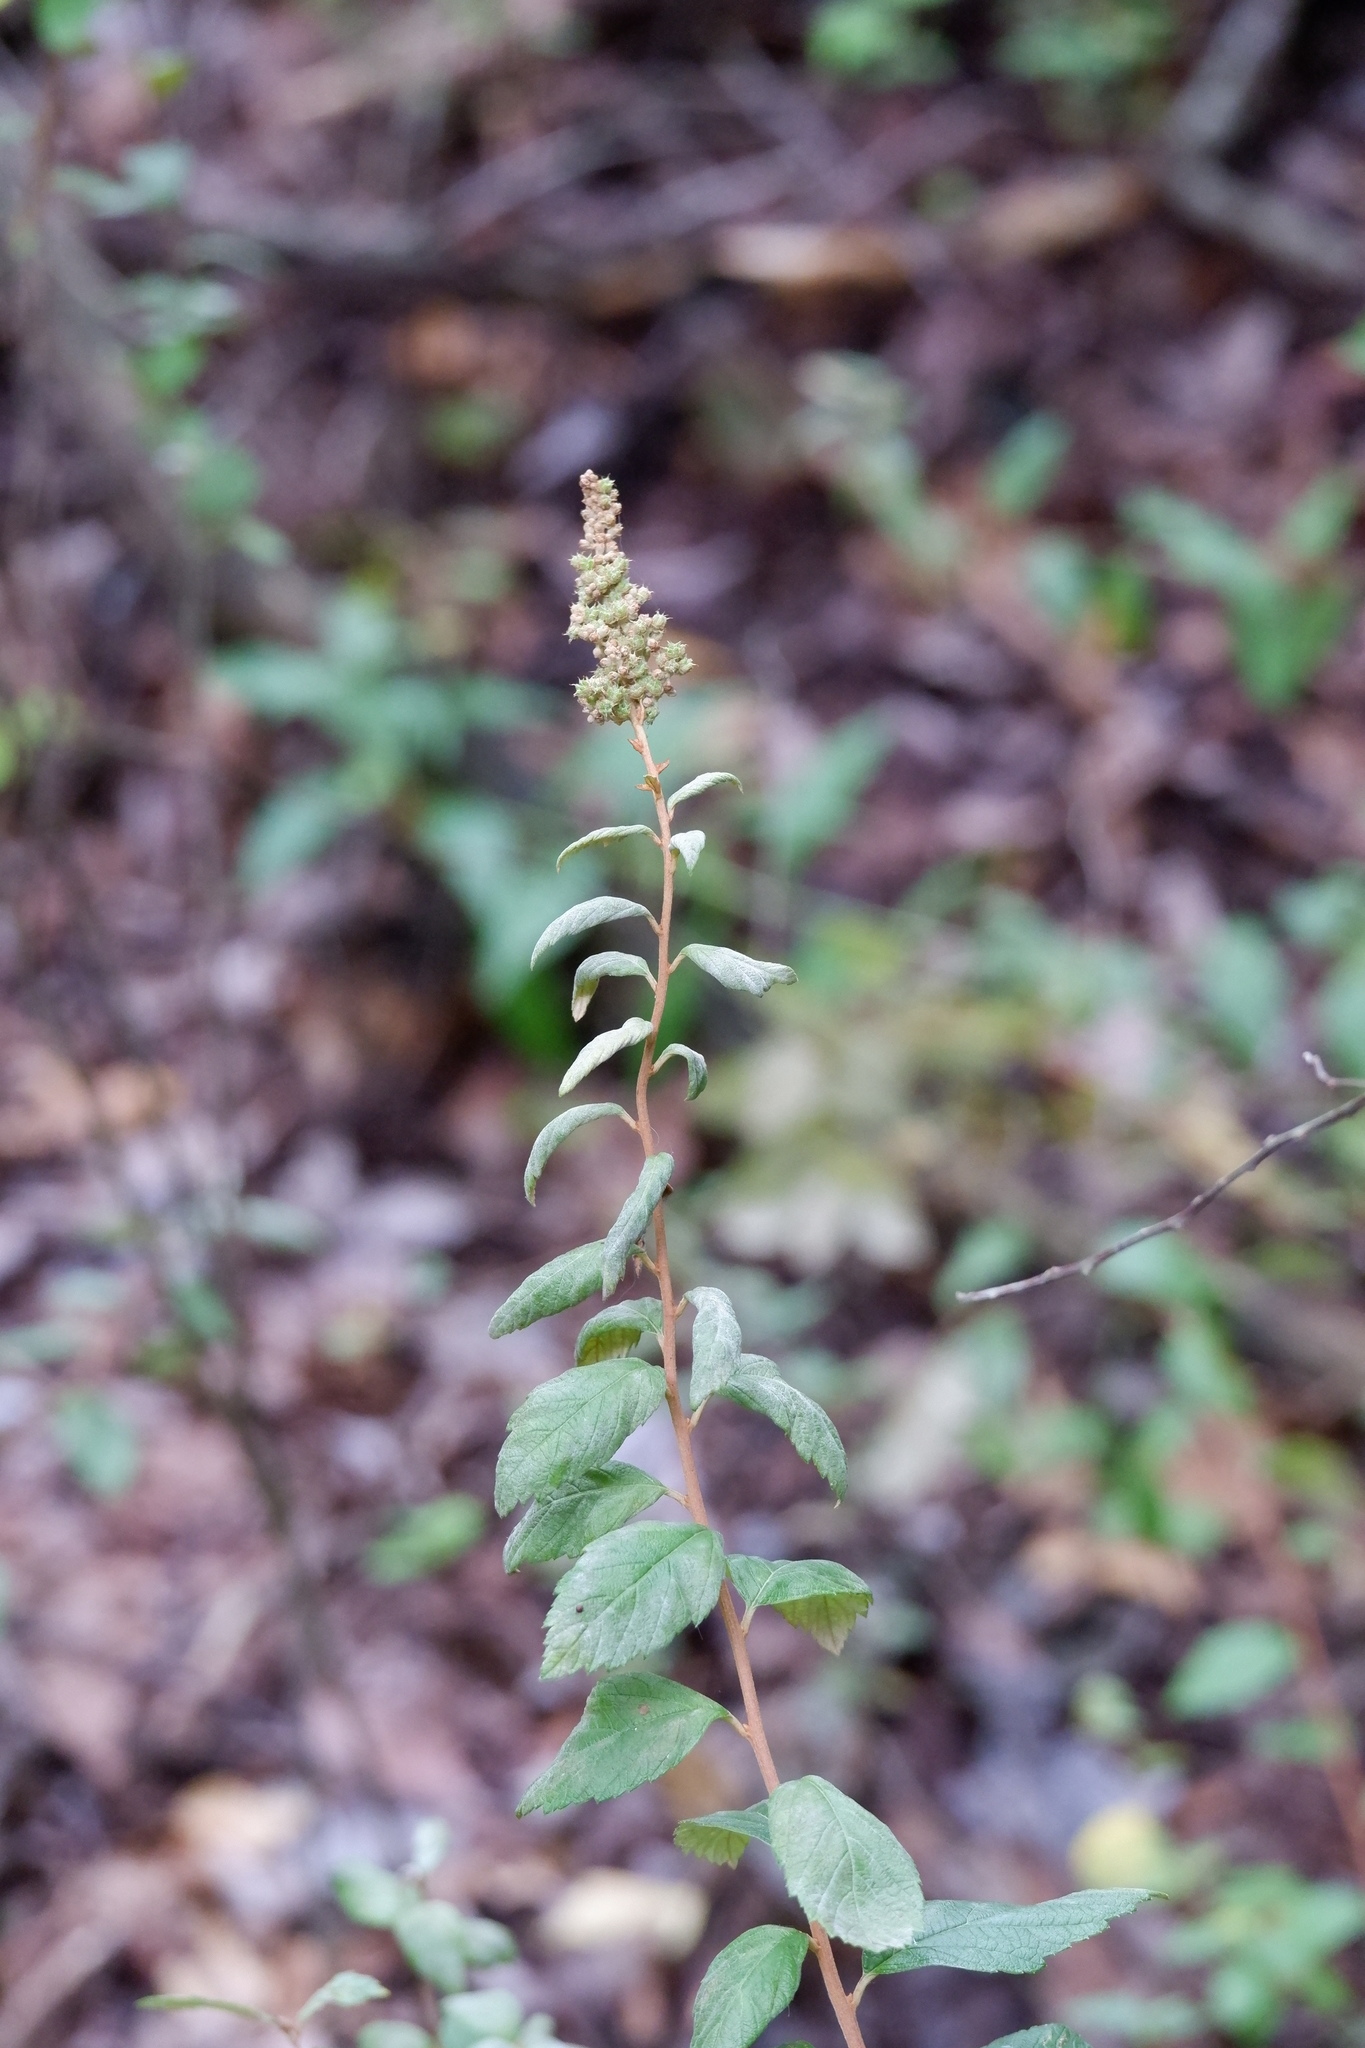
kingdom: Plantae
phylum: Tracheophyta
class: Magnoliopsida
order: Rosales
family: Rosaceae
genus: Spiraea
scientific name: Spiraea tomentosa
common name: Hardhack
